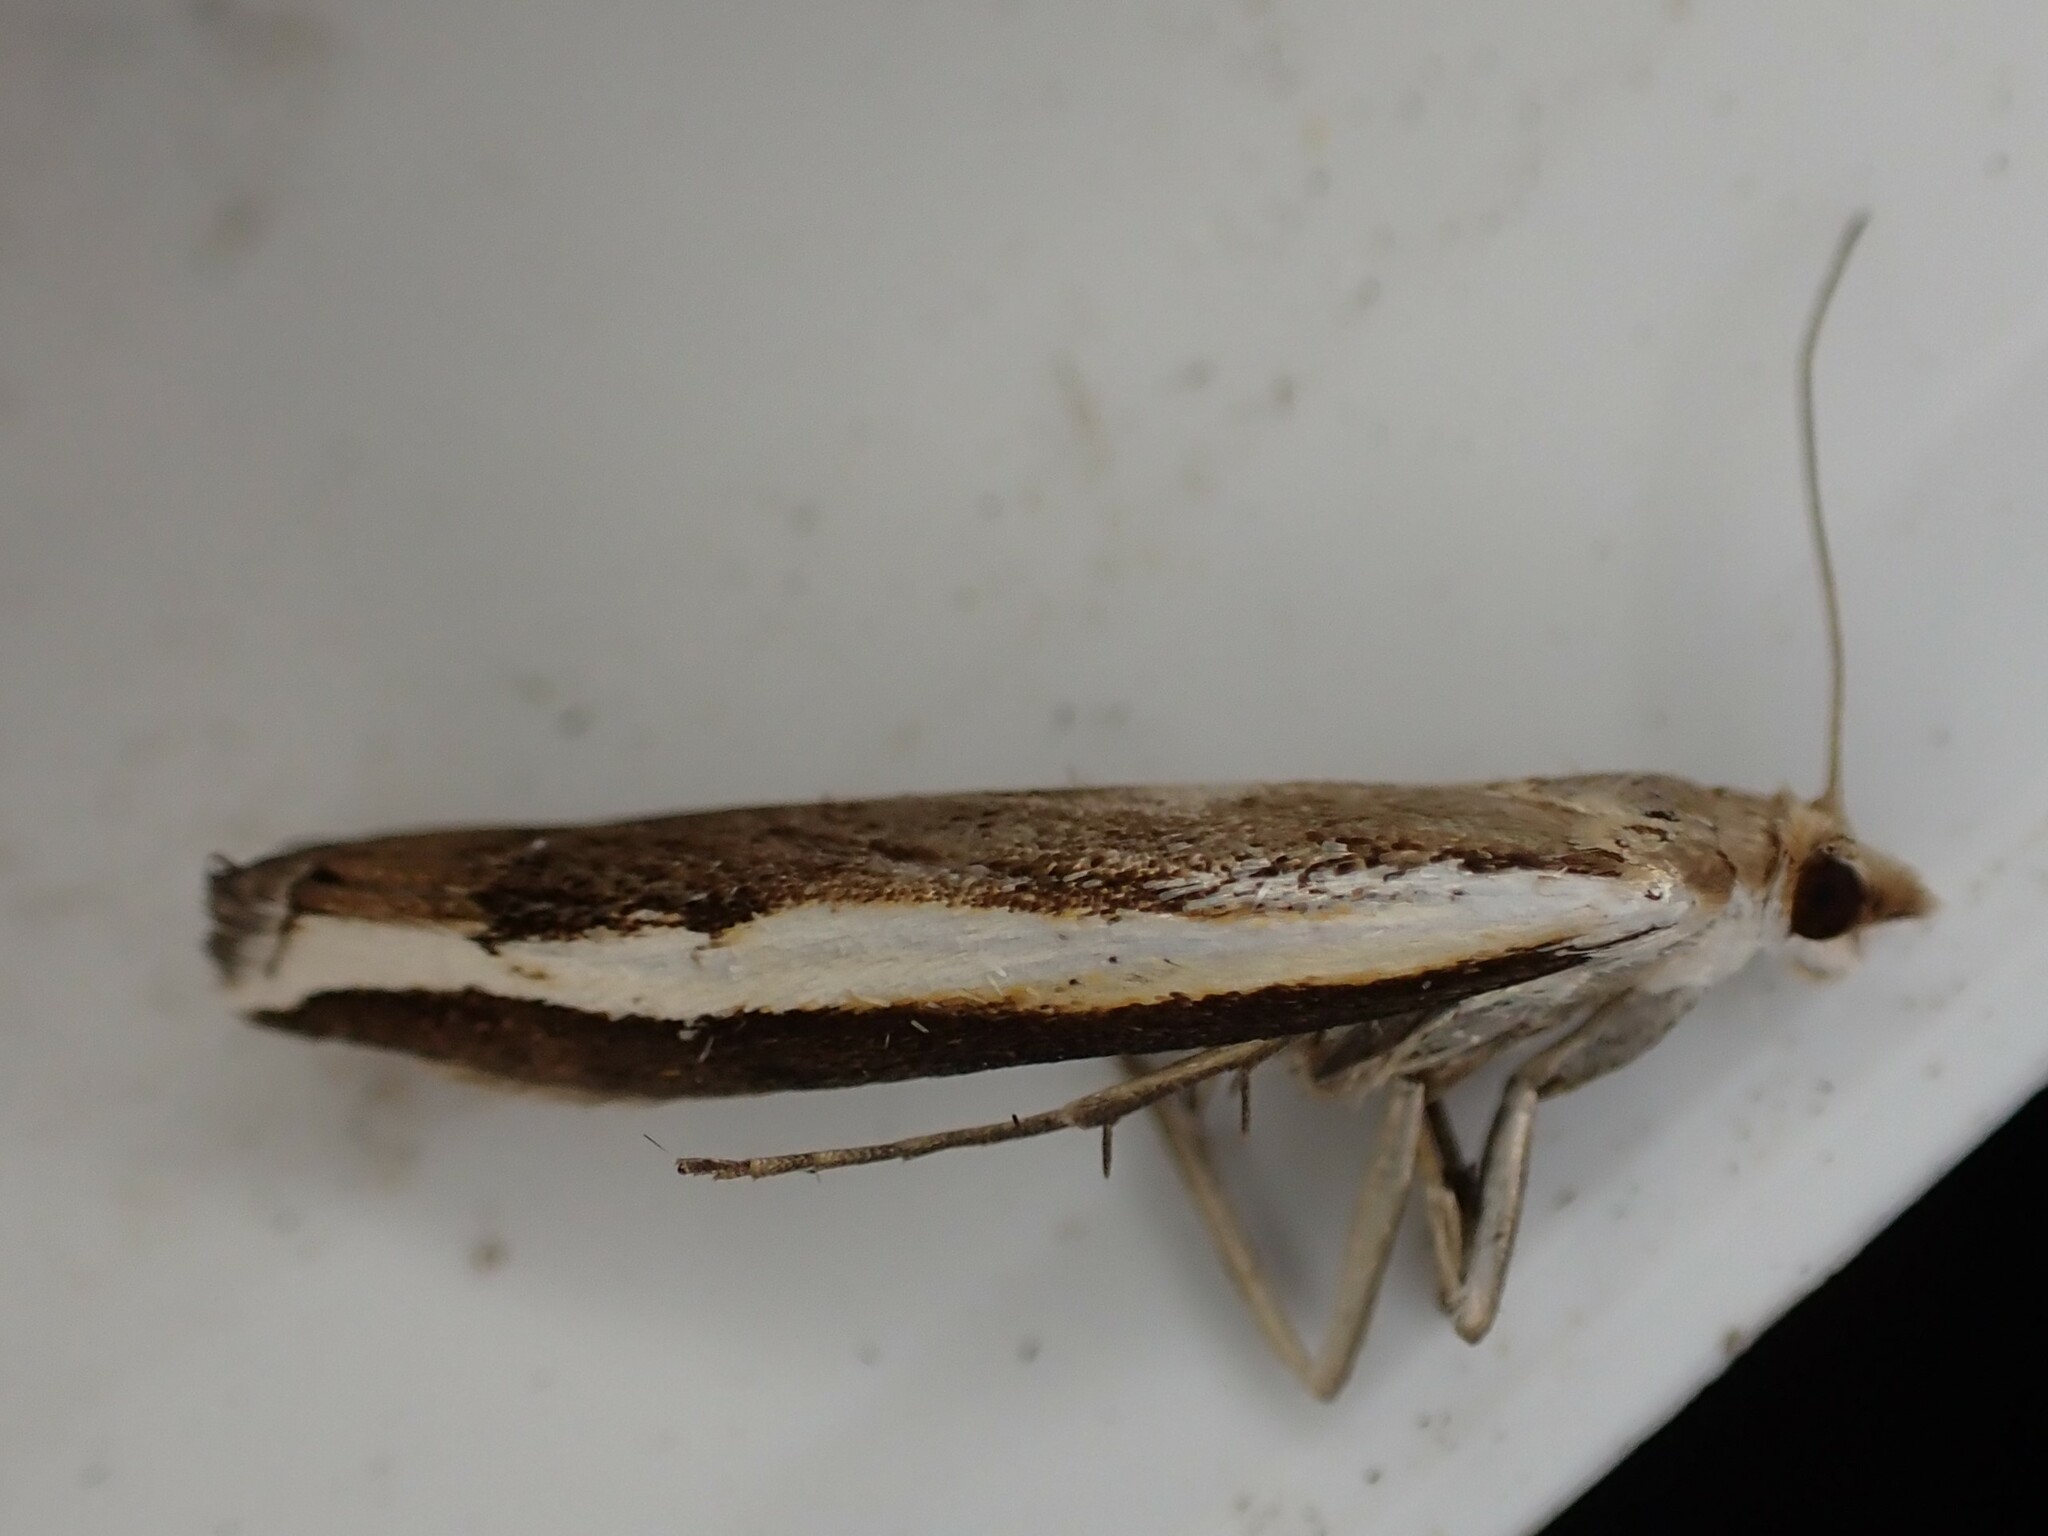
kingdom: Animalia
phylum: Arthropoda
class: Insecta
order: Lepidoptera
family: Crambidae
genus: Orocrambus
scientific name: Orocrambus flexuosellus
